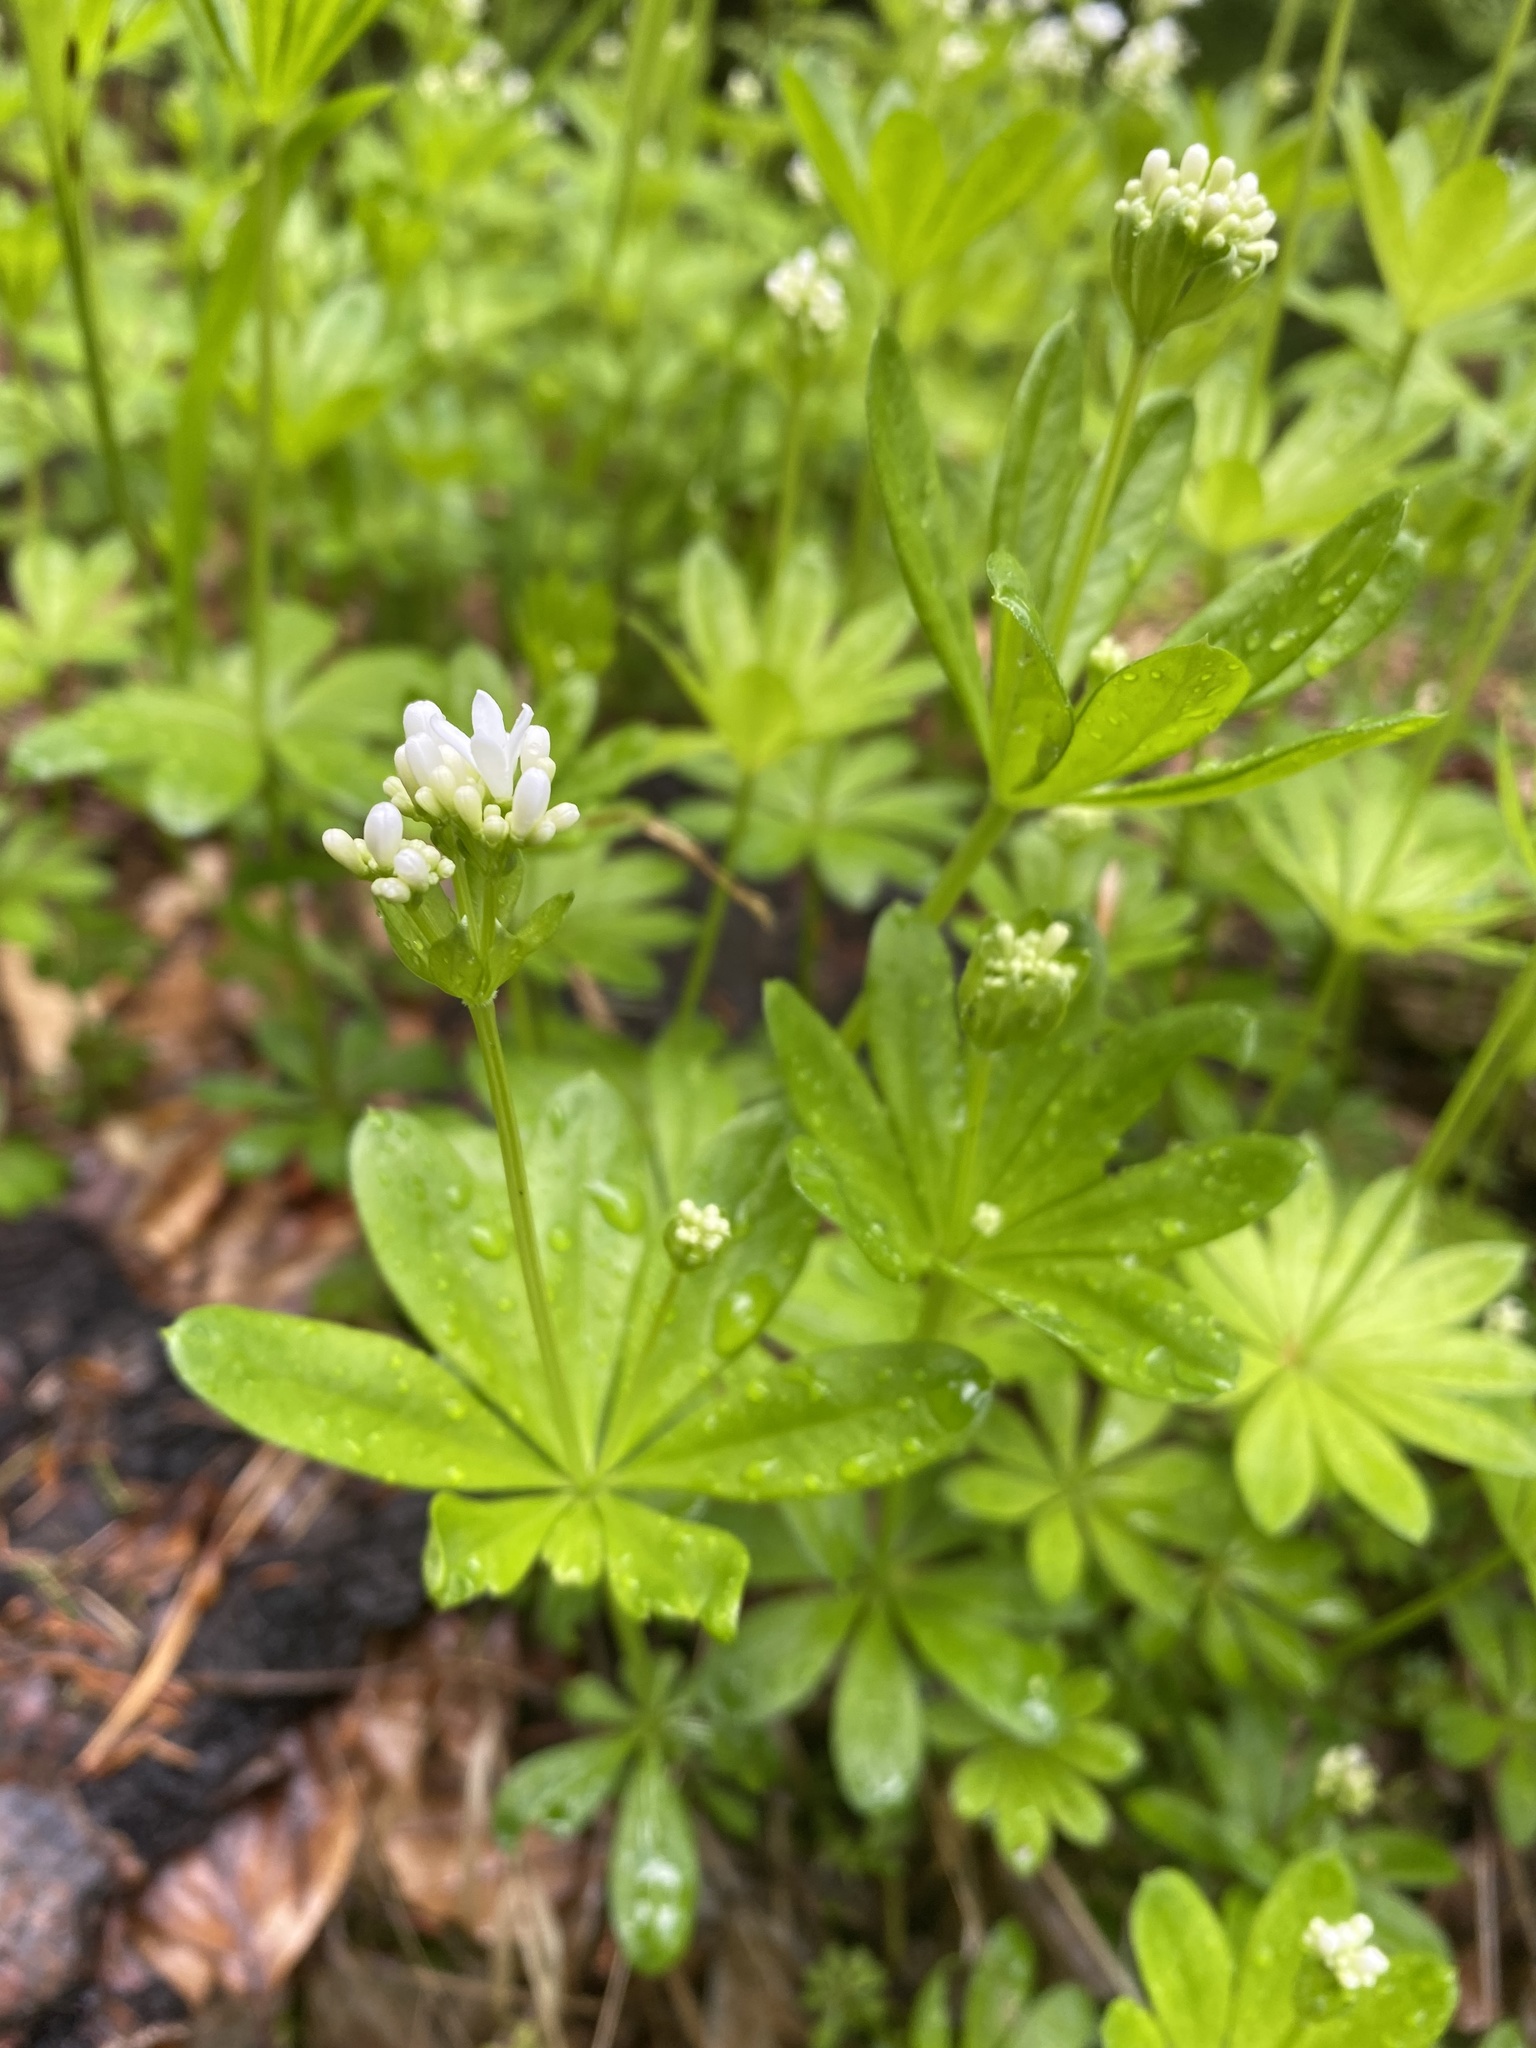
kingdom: Plantae
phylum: Tracheophyta
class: Magnoliopsida
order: Gentianales
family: Rubiaceae
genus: Galium
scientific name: Galium odoratum
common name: Sweet woodruff
